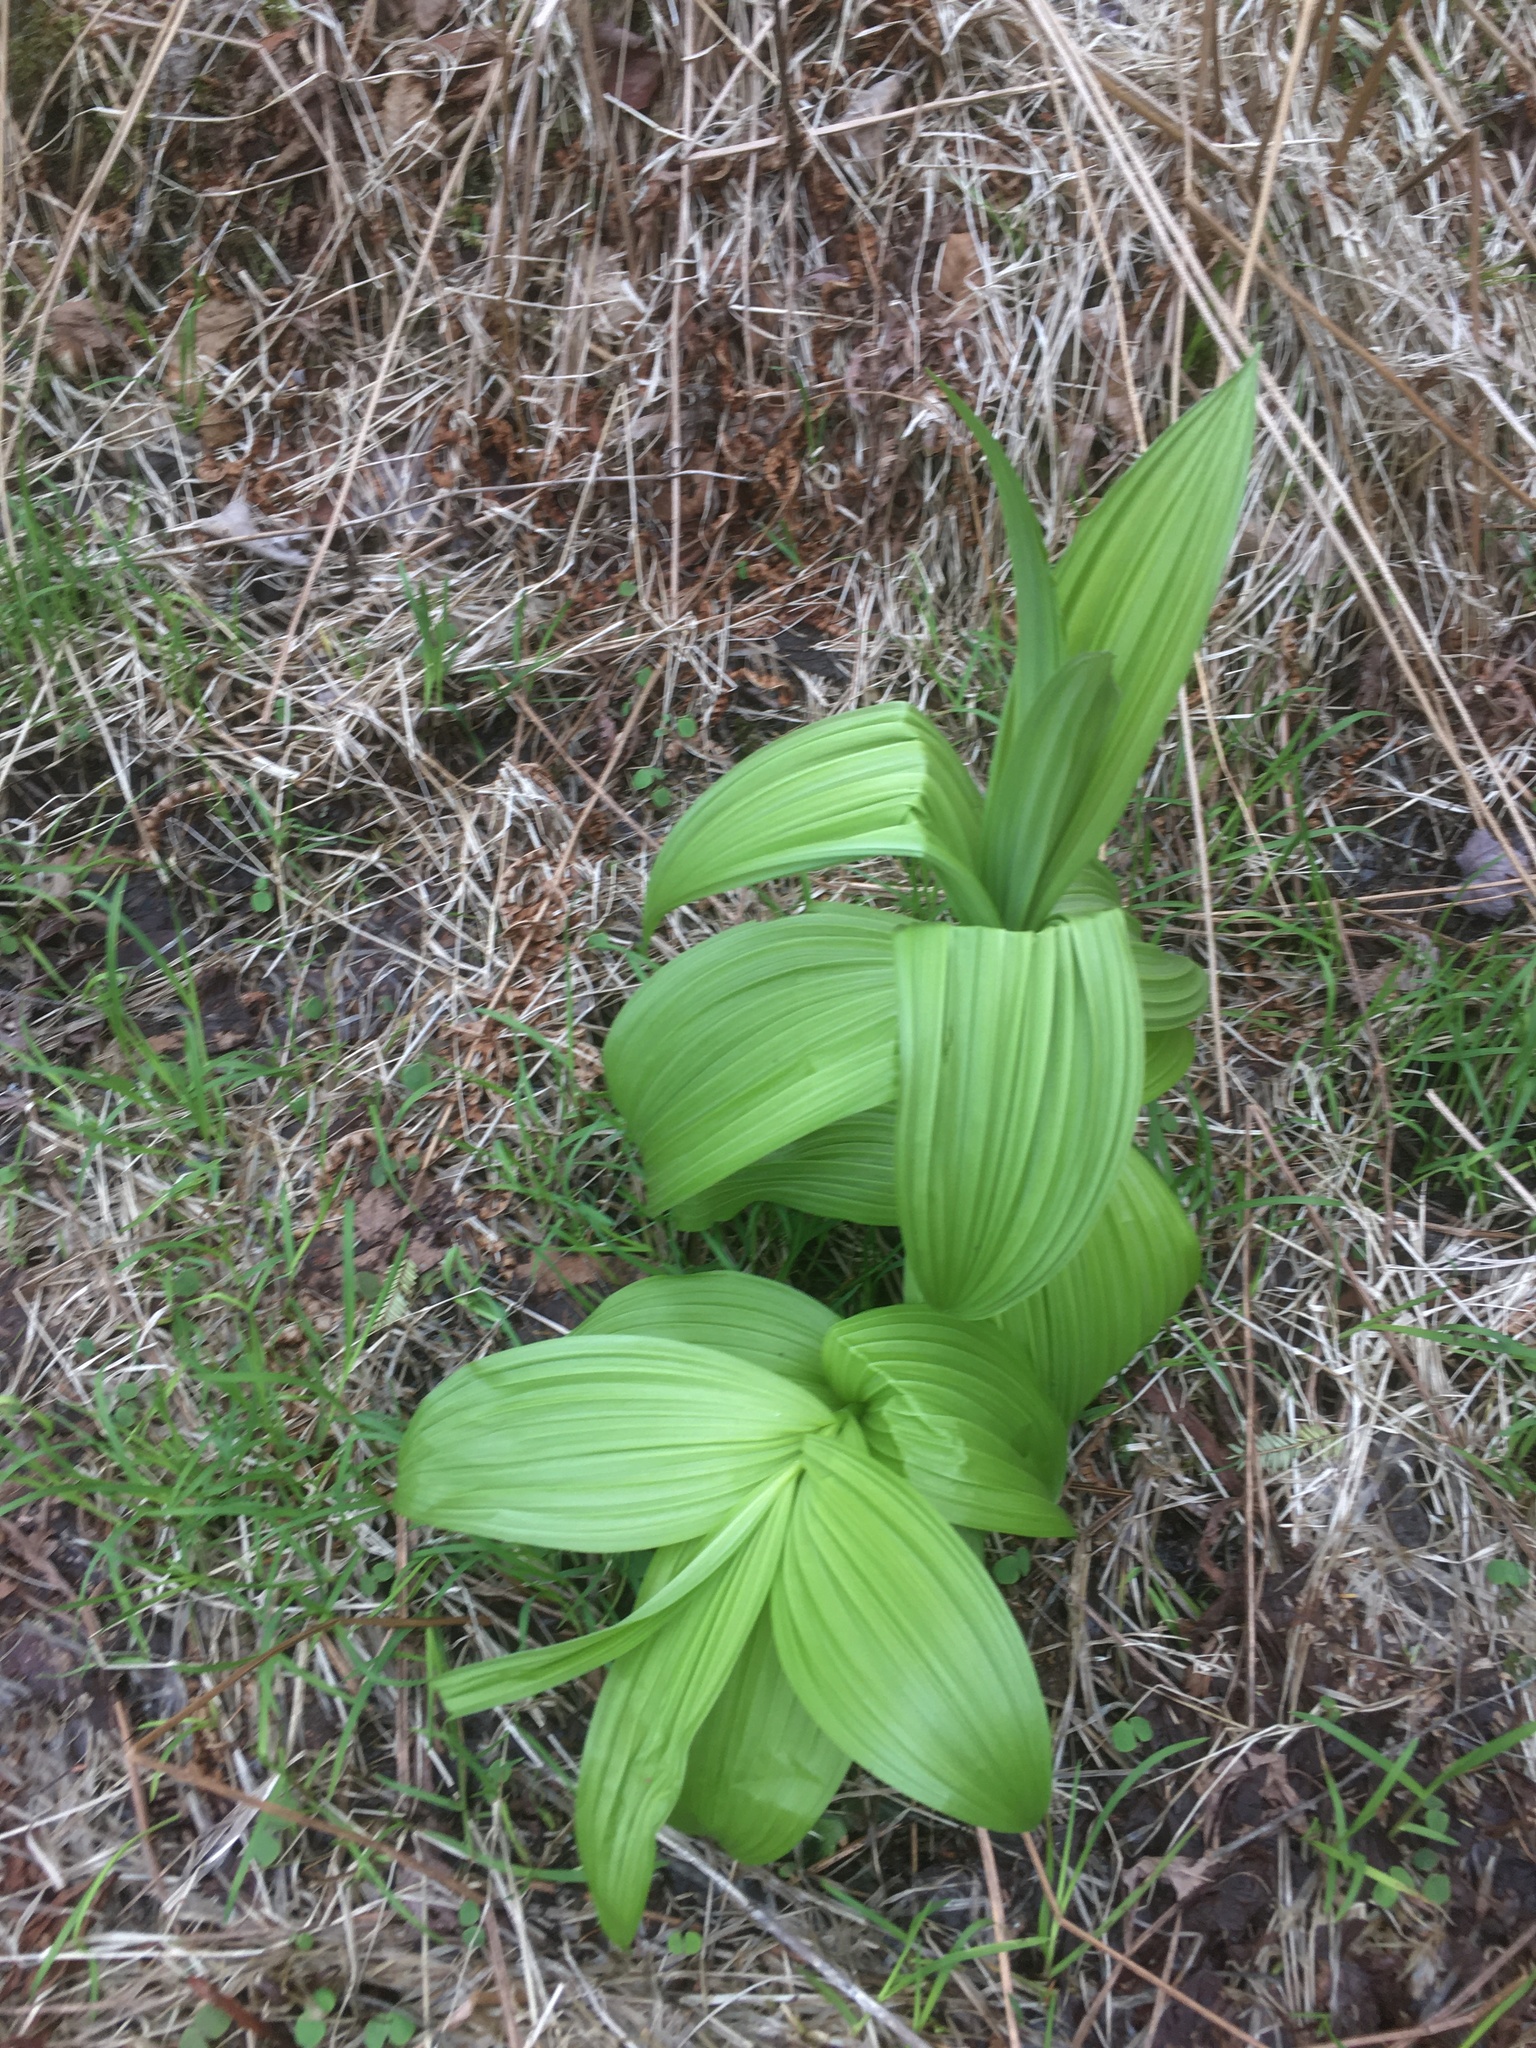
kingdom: Plantae
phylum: Tracheophyta
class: Liliopsida
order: Liliales
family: Melanthiaceae
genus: Veratrum
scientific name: Veratrum viride
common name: American false hellebore
